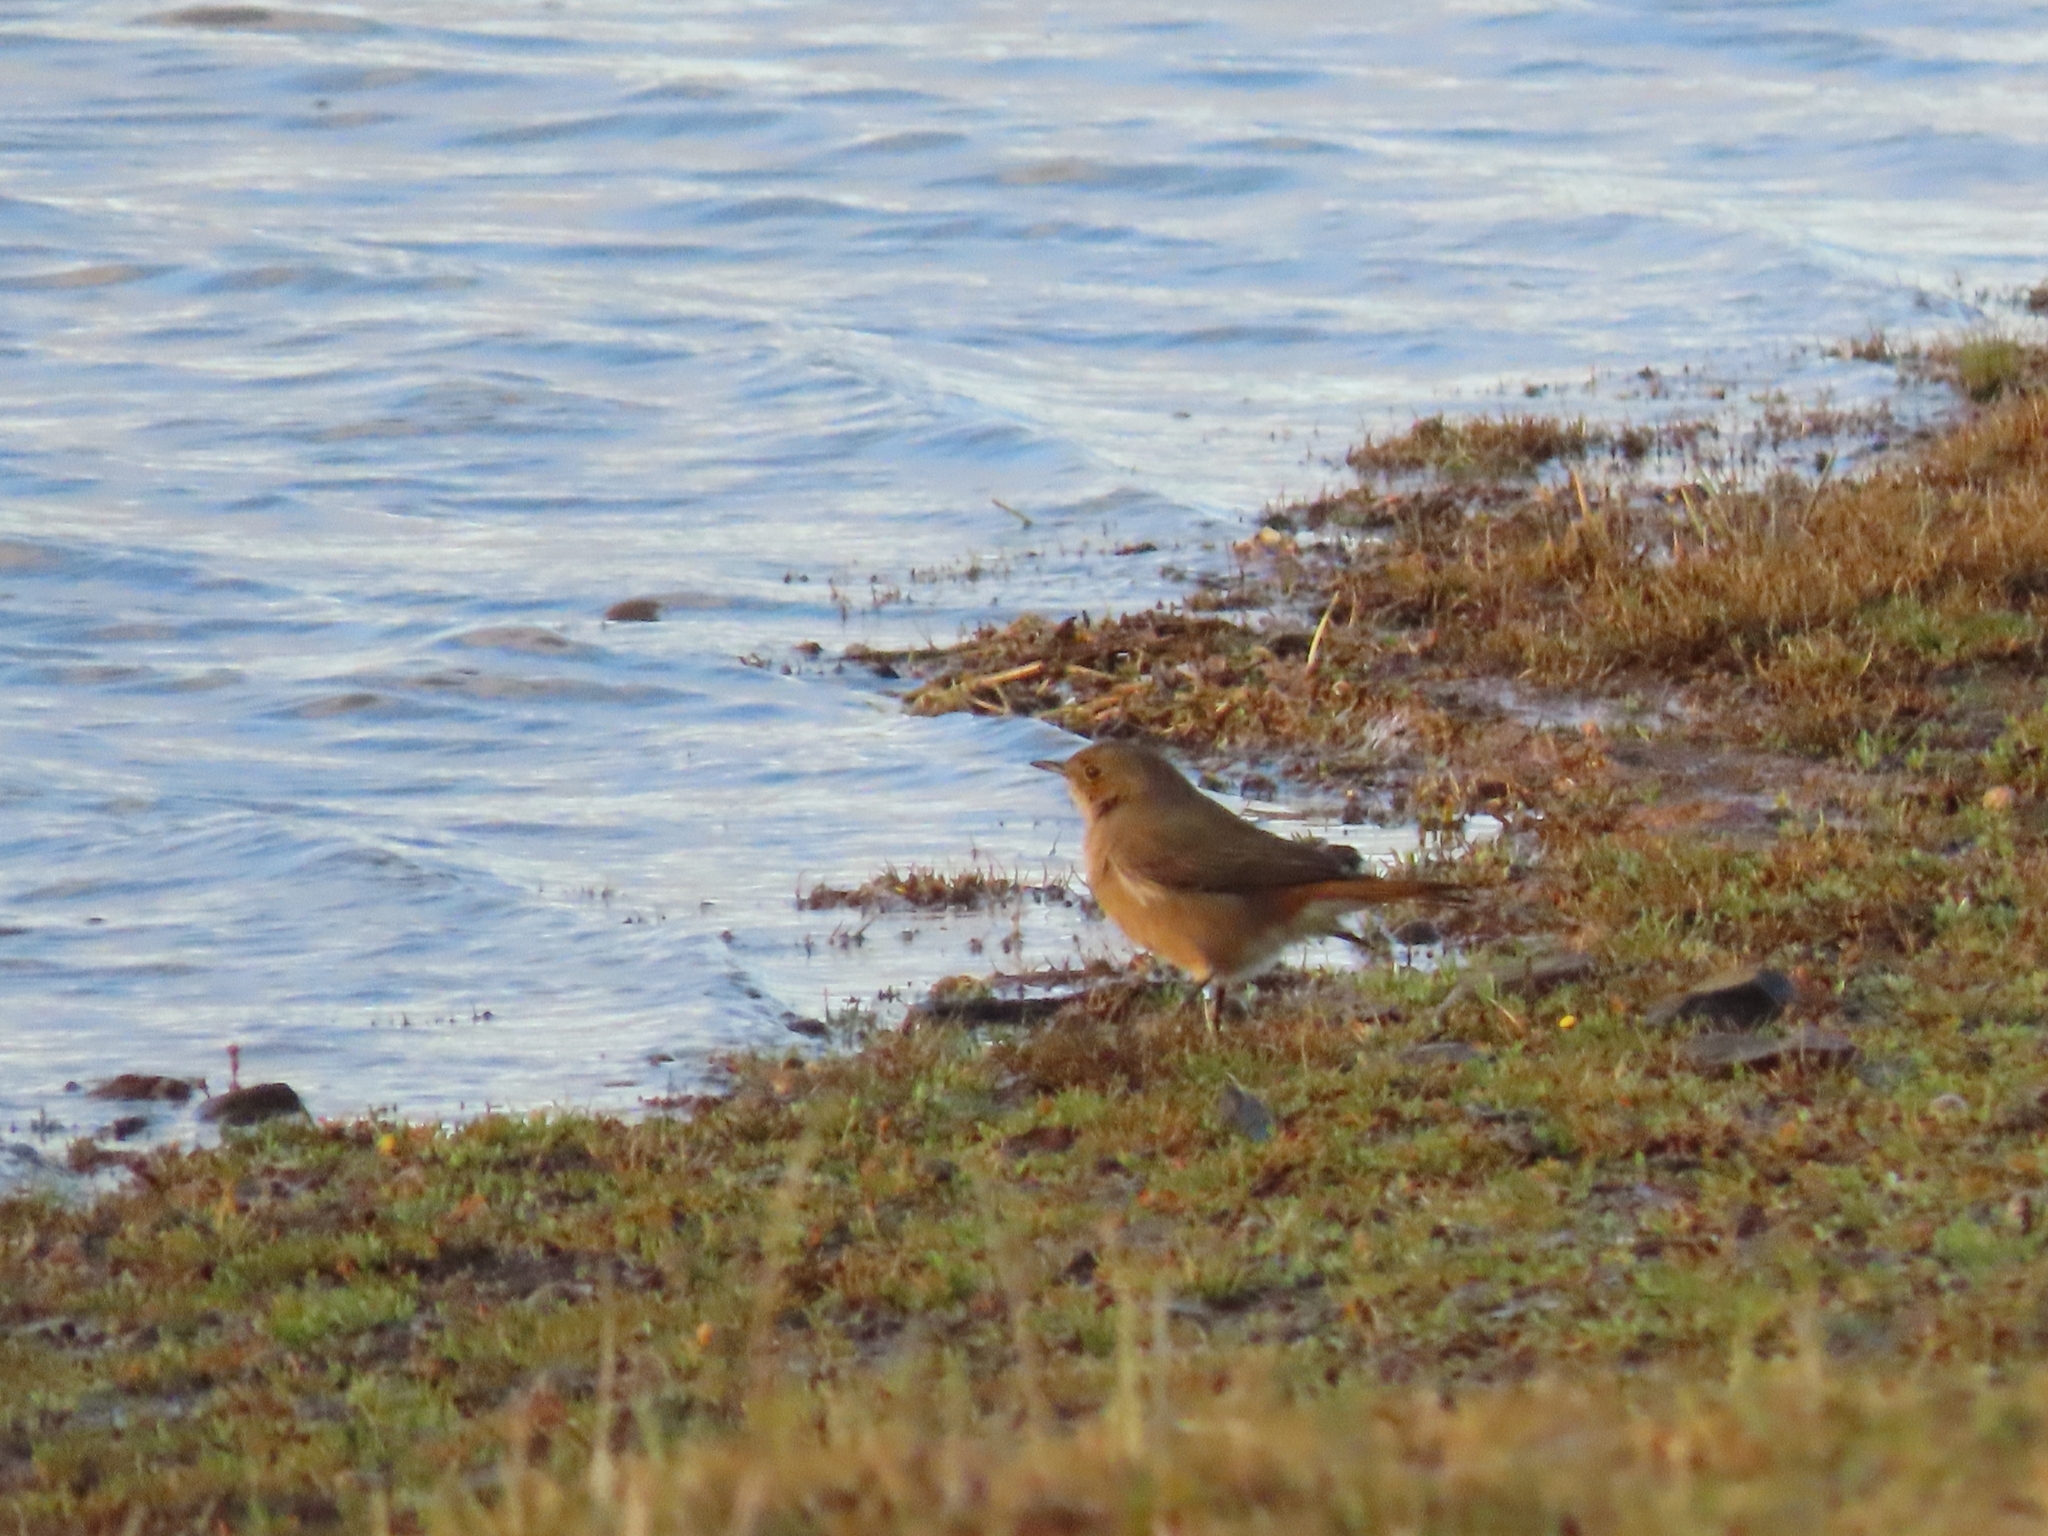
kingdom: Animalia
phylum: Chordata
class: Aves
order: Passeriformes
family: Muscicapidae
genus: Oenanthe
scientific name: Oenanthe familiaris
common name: Familiar chat
